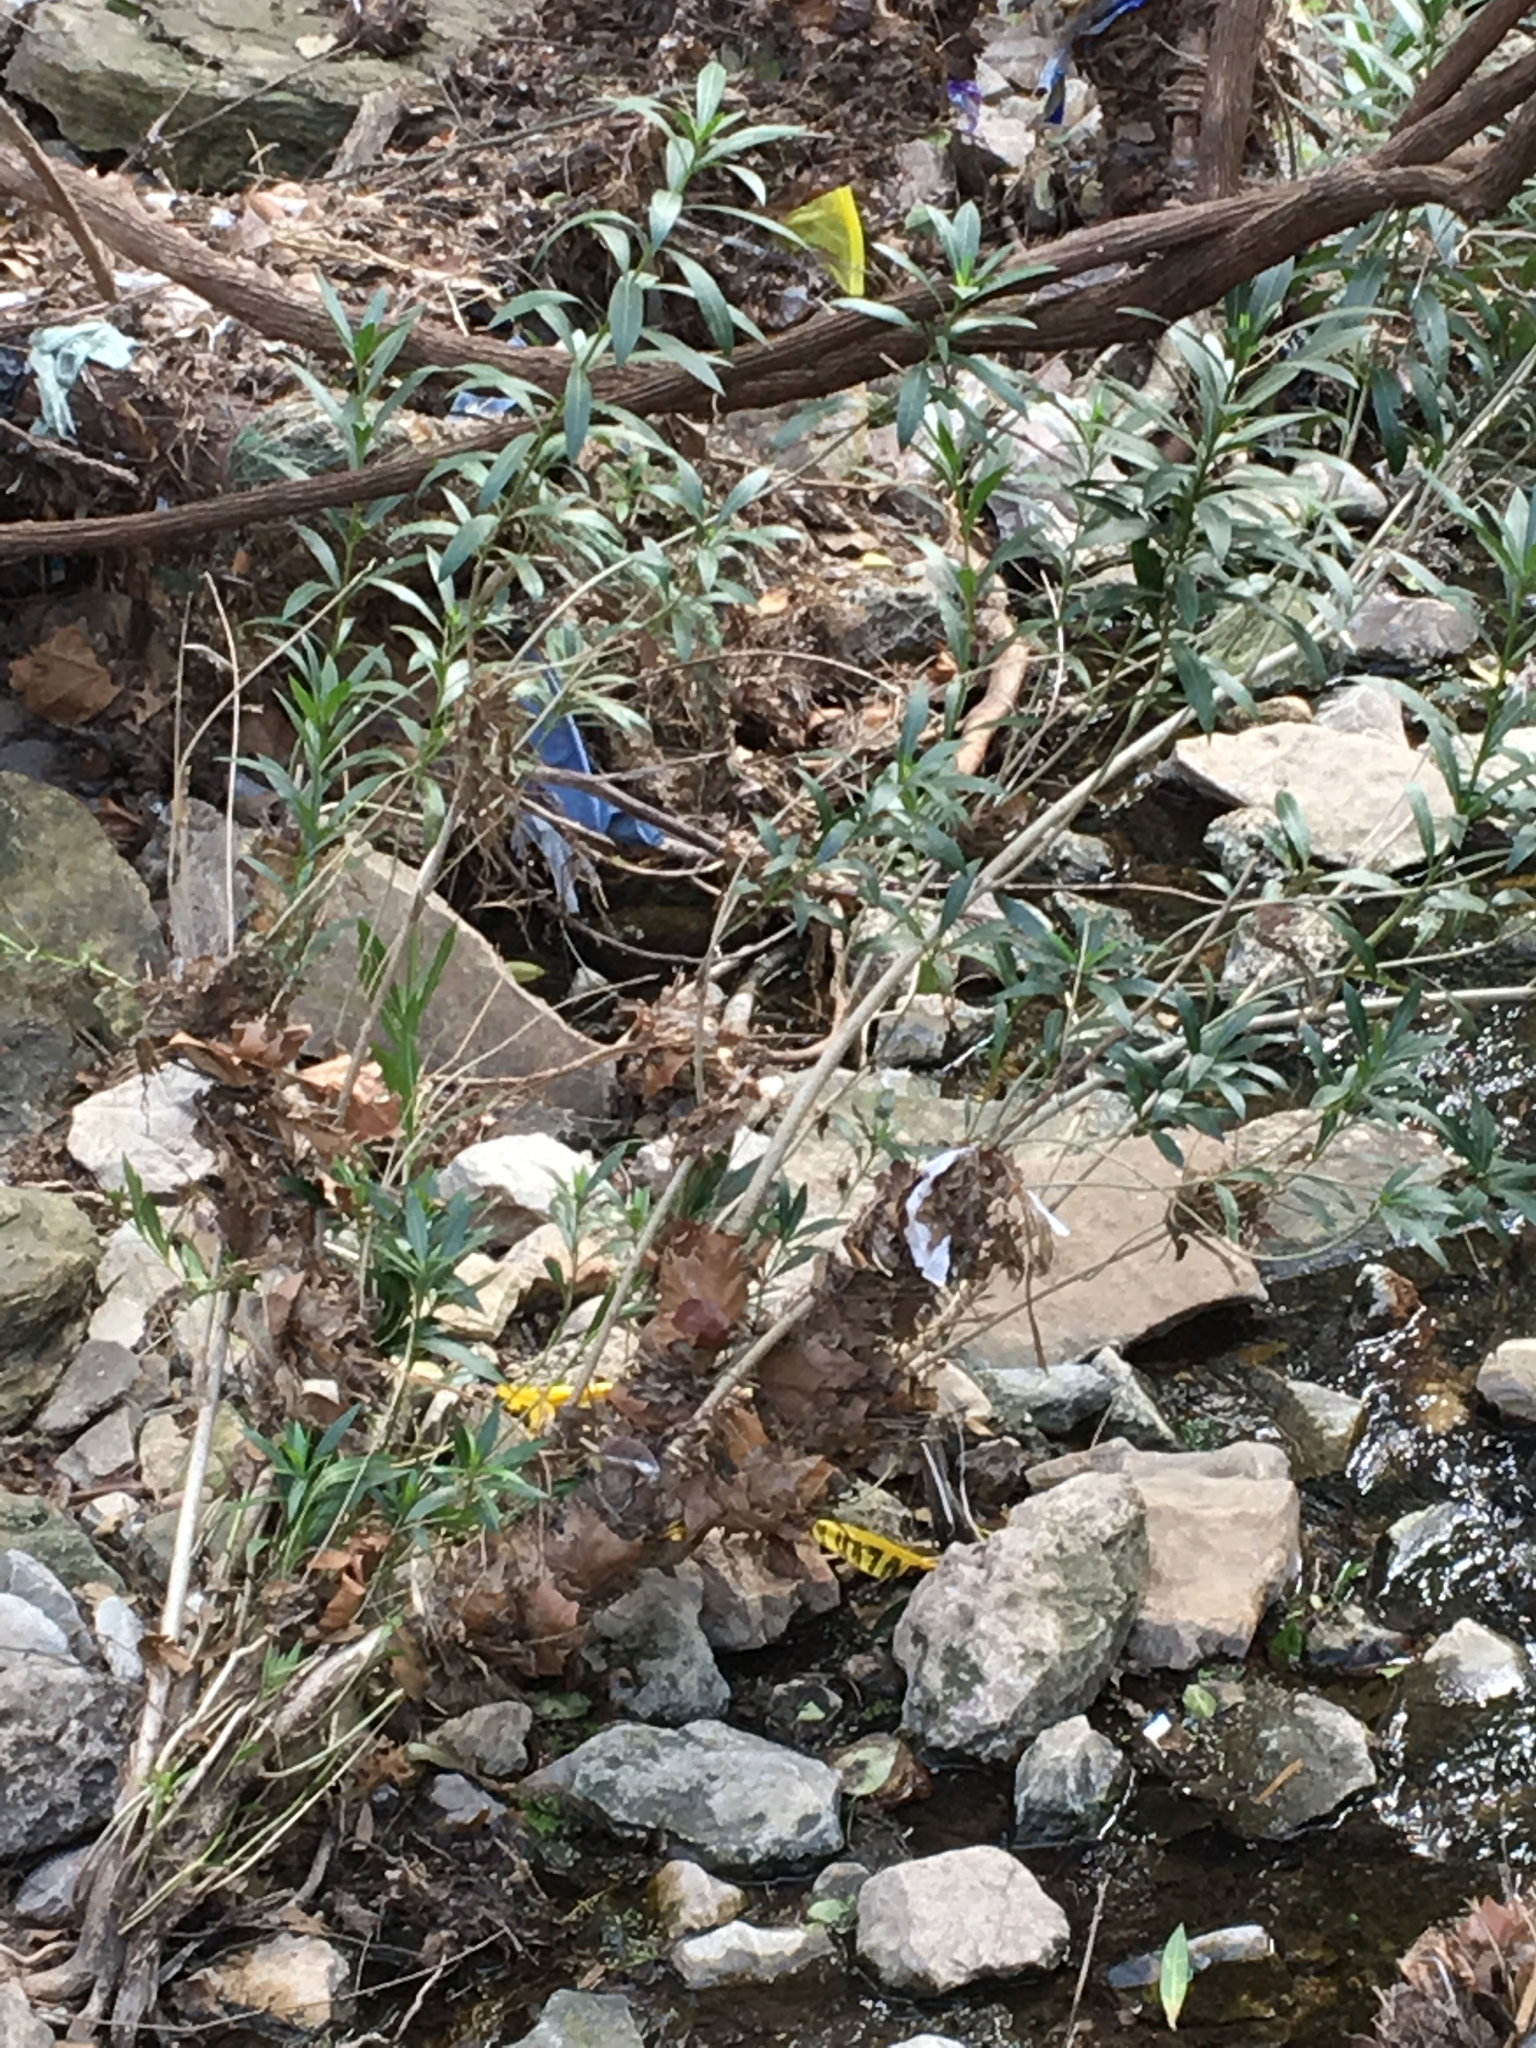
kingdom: Plantae
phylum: Tracheophyta
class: Magnoliopsida
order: Gentianales
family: Apocynaceae
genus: Nerium
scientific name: Nerium oleander
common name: Oleander
